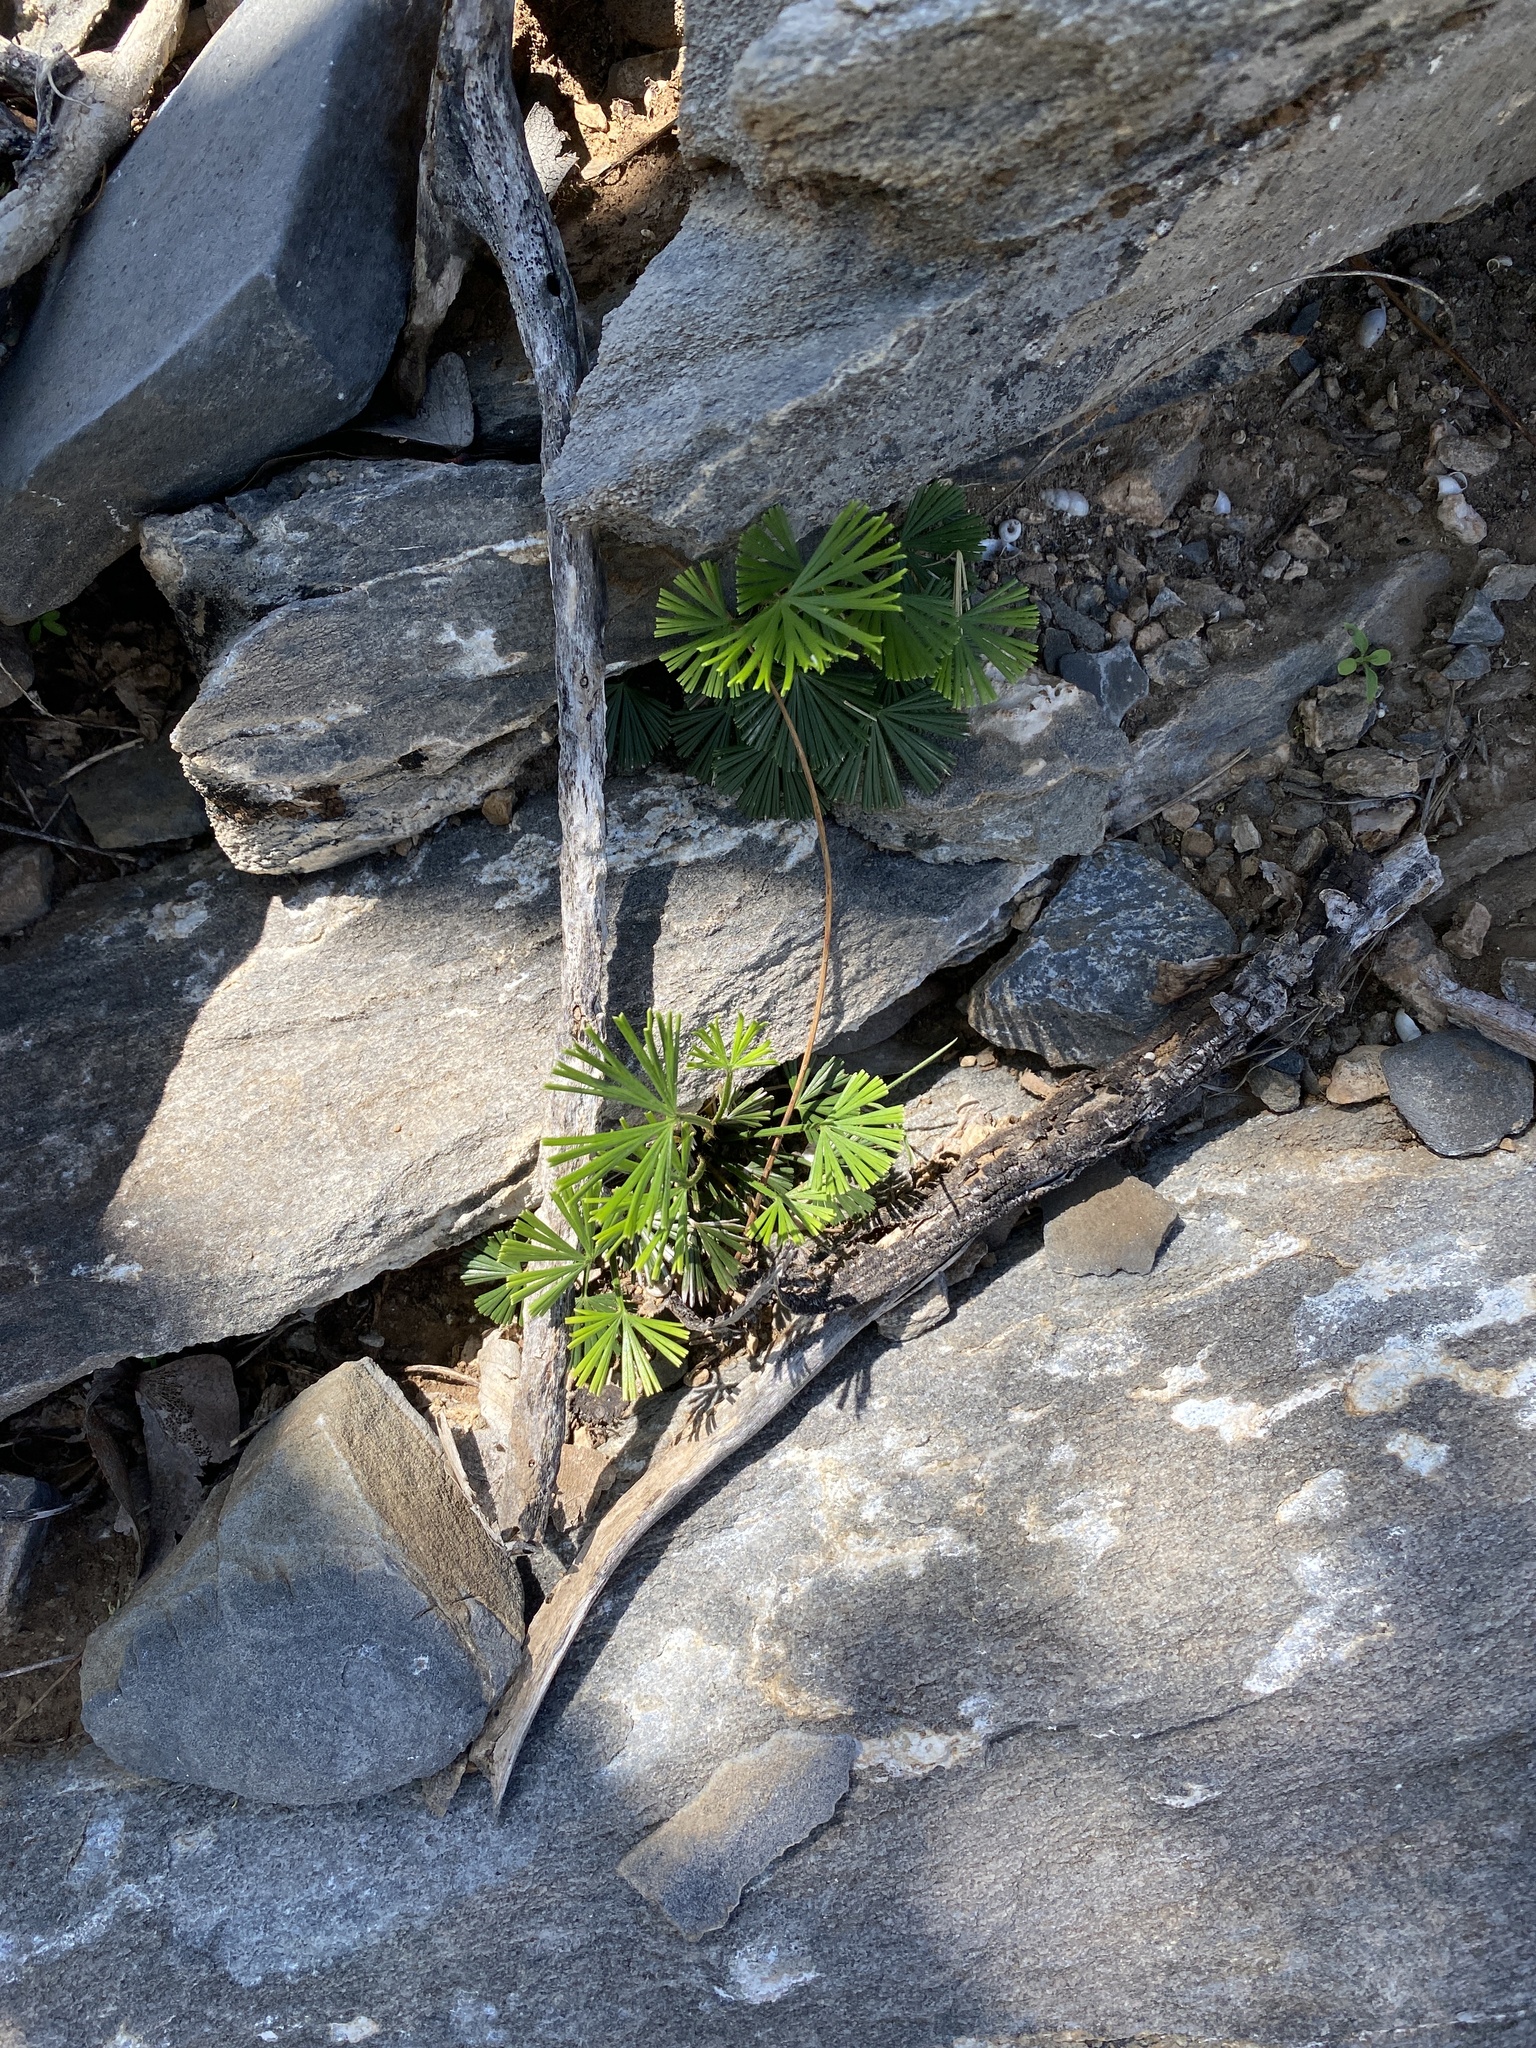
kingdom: Plantae
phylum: Tracheophyta
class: Polypodiopsida
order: Polypodiales
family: Pteridaceae
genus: Actiniopteris
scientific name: Actiniopteris radiata
